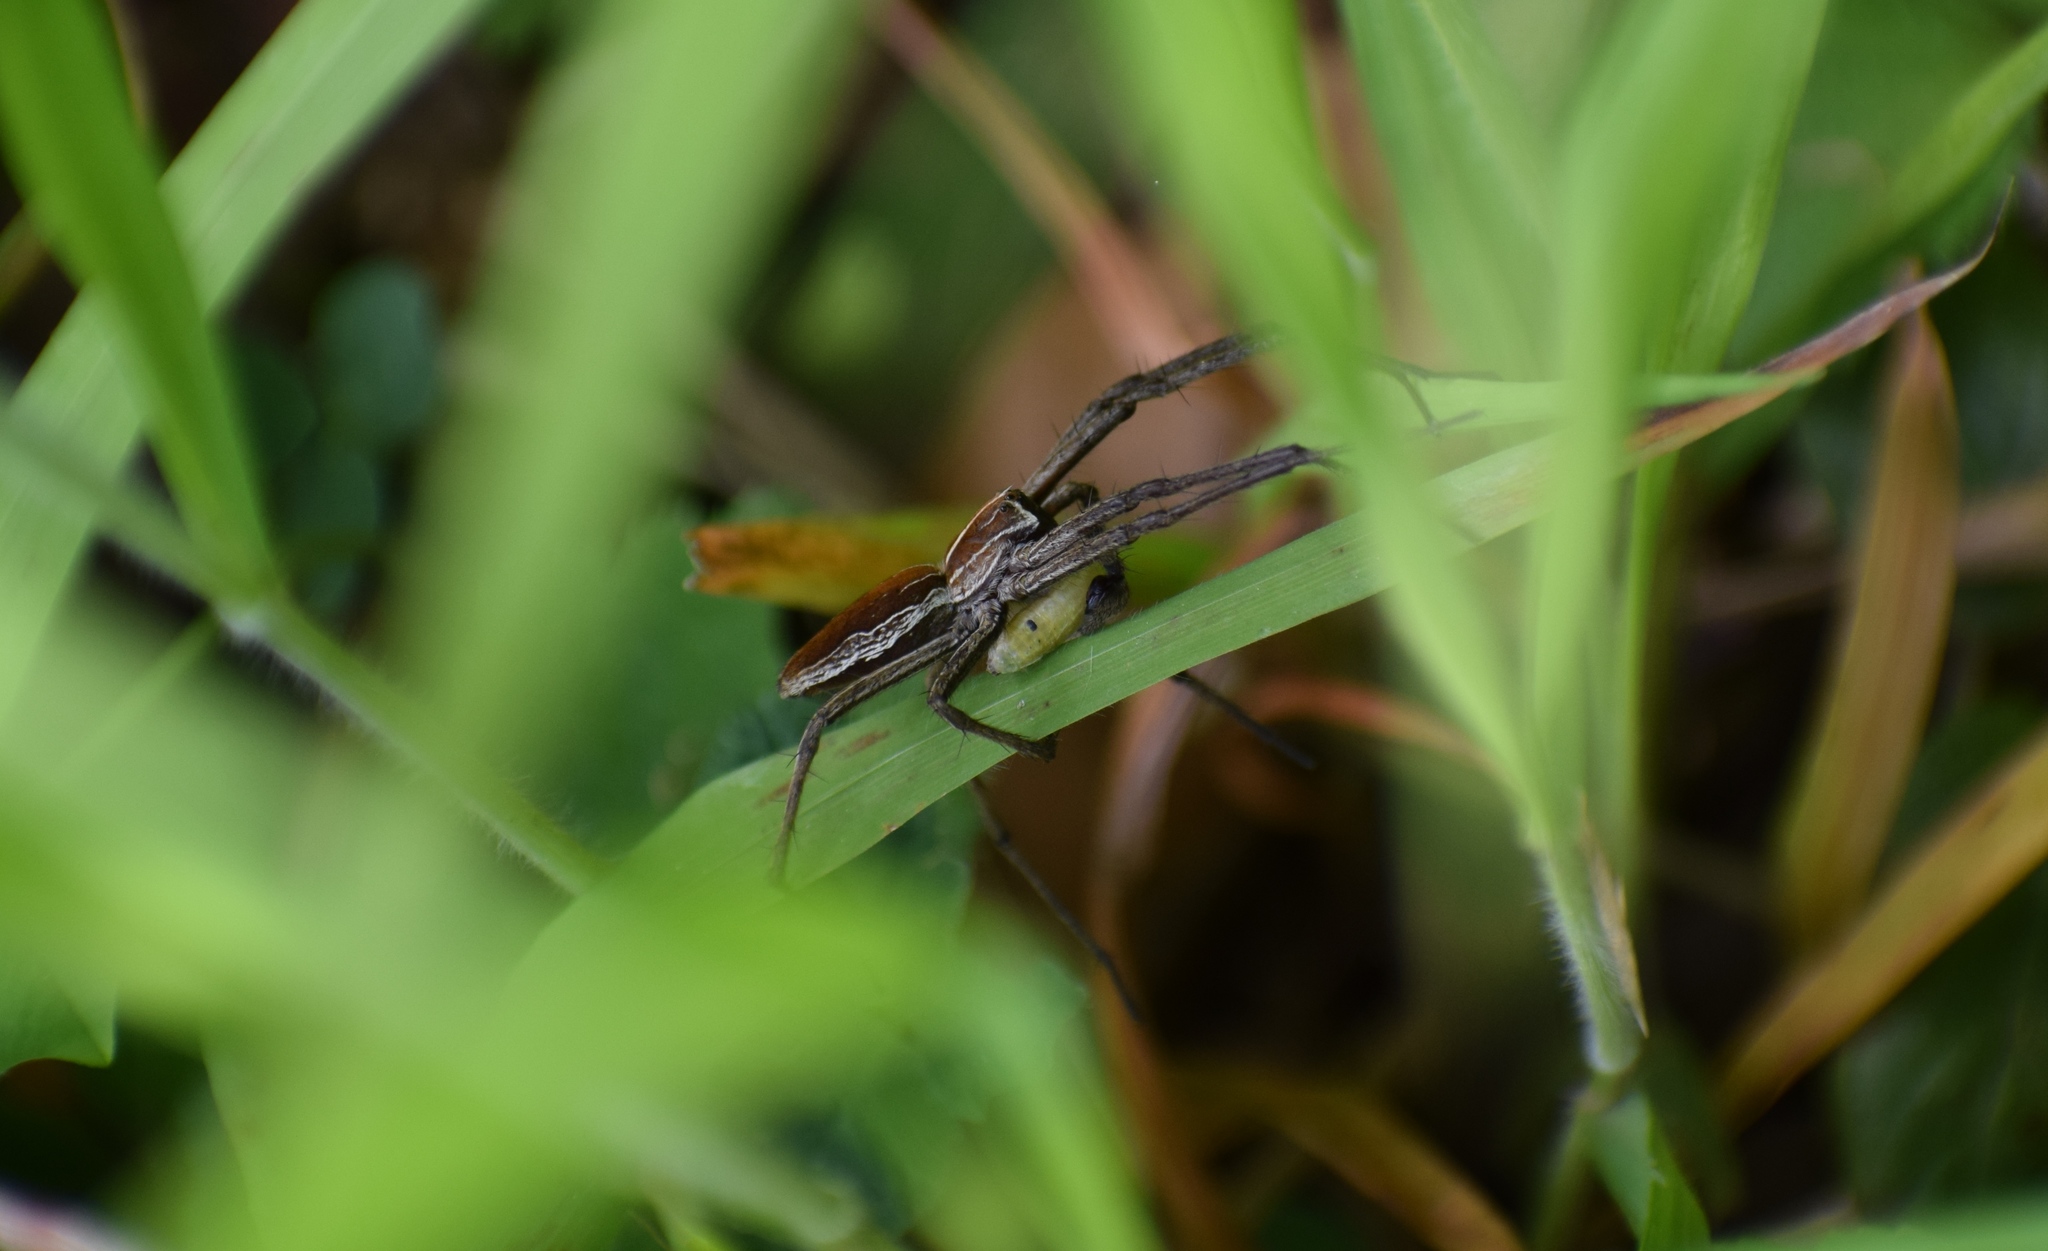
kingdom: Animalia
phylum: Arthropoda
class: Arachnida
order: Araneae
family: Pisauridae
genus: Pisaura
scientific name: Pisaura mirabilis
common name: Tent spider
